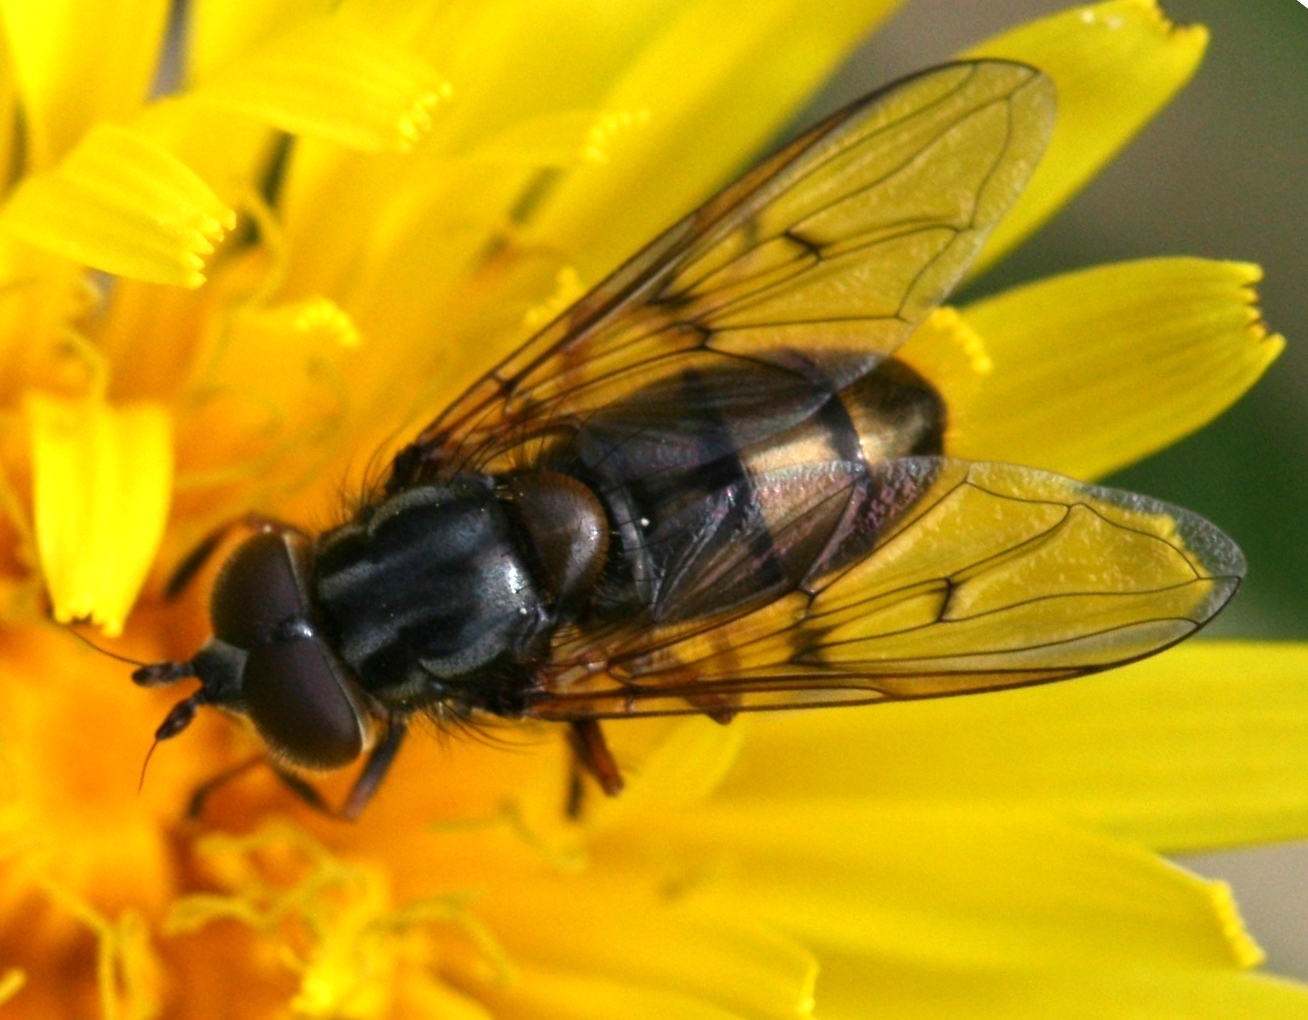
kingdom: Animalia
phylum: Arthropoda
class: Insecta
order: Diptera
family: Syrphidae
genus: Ferdinandea
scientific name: Ferdinandea cuprea
